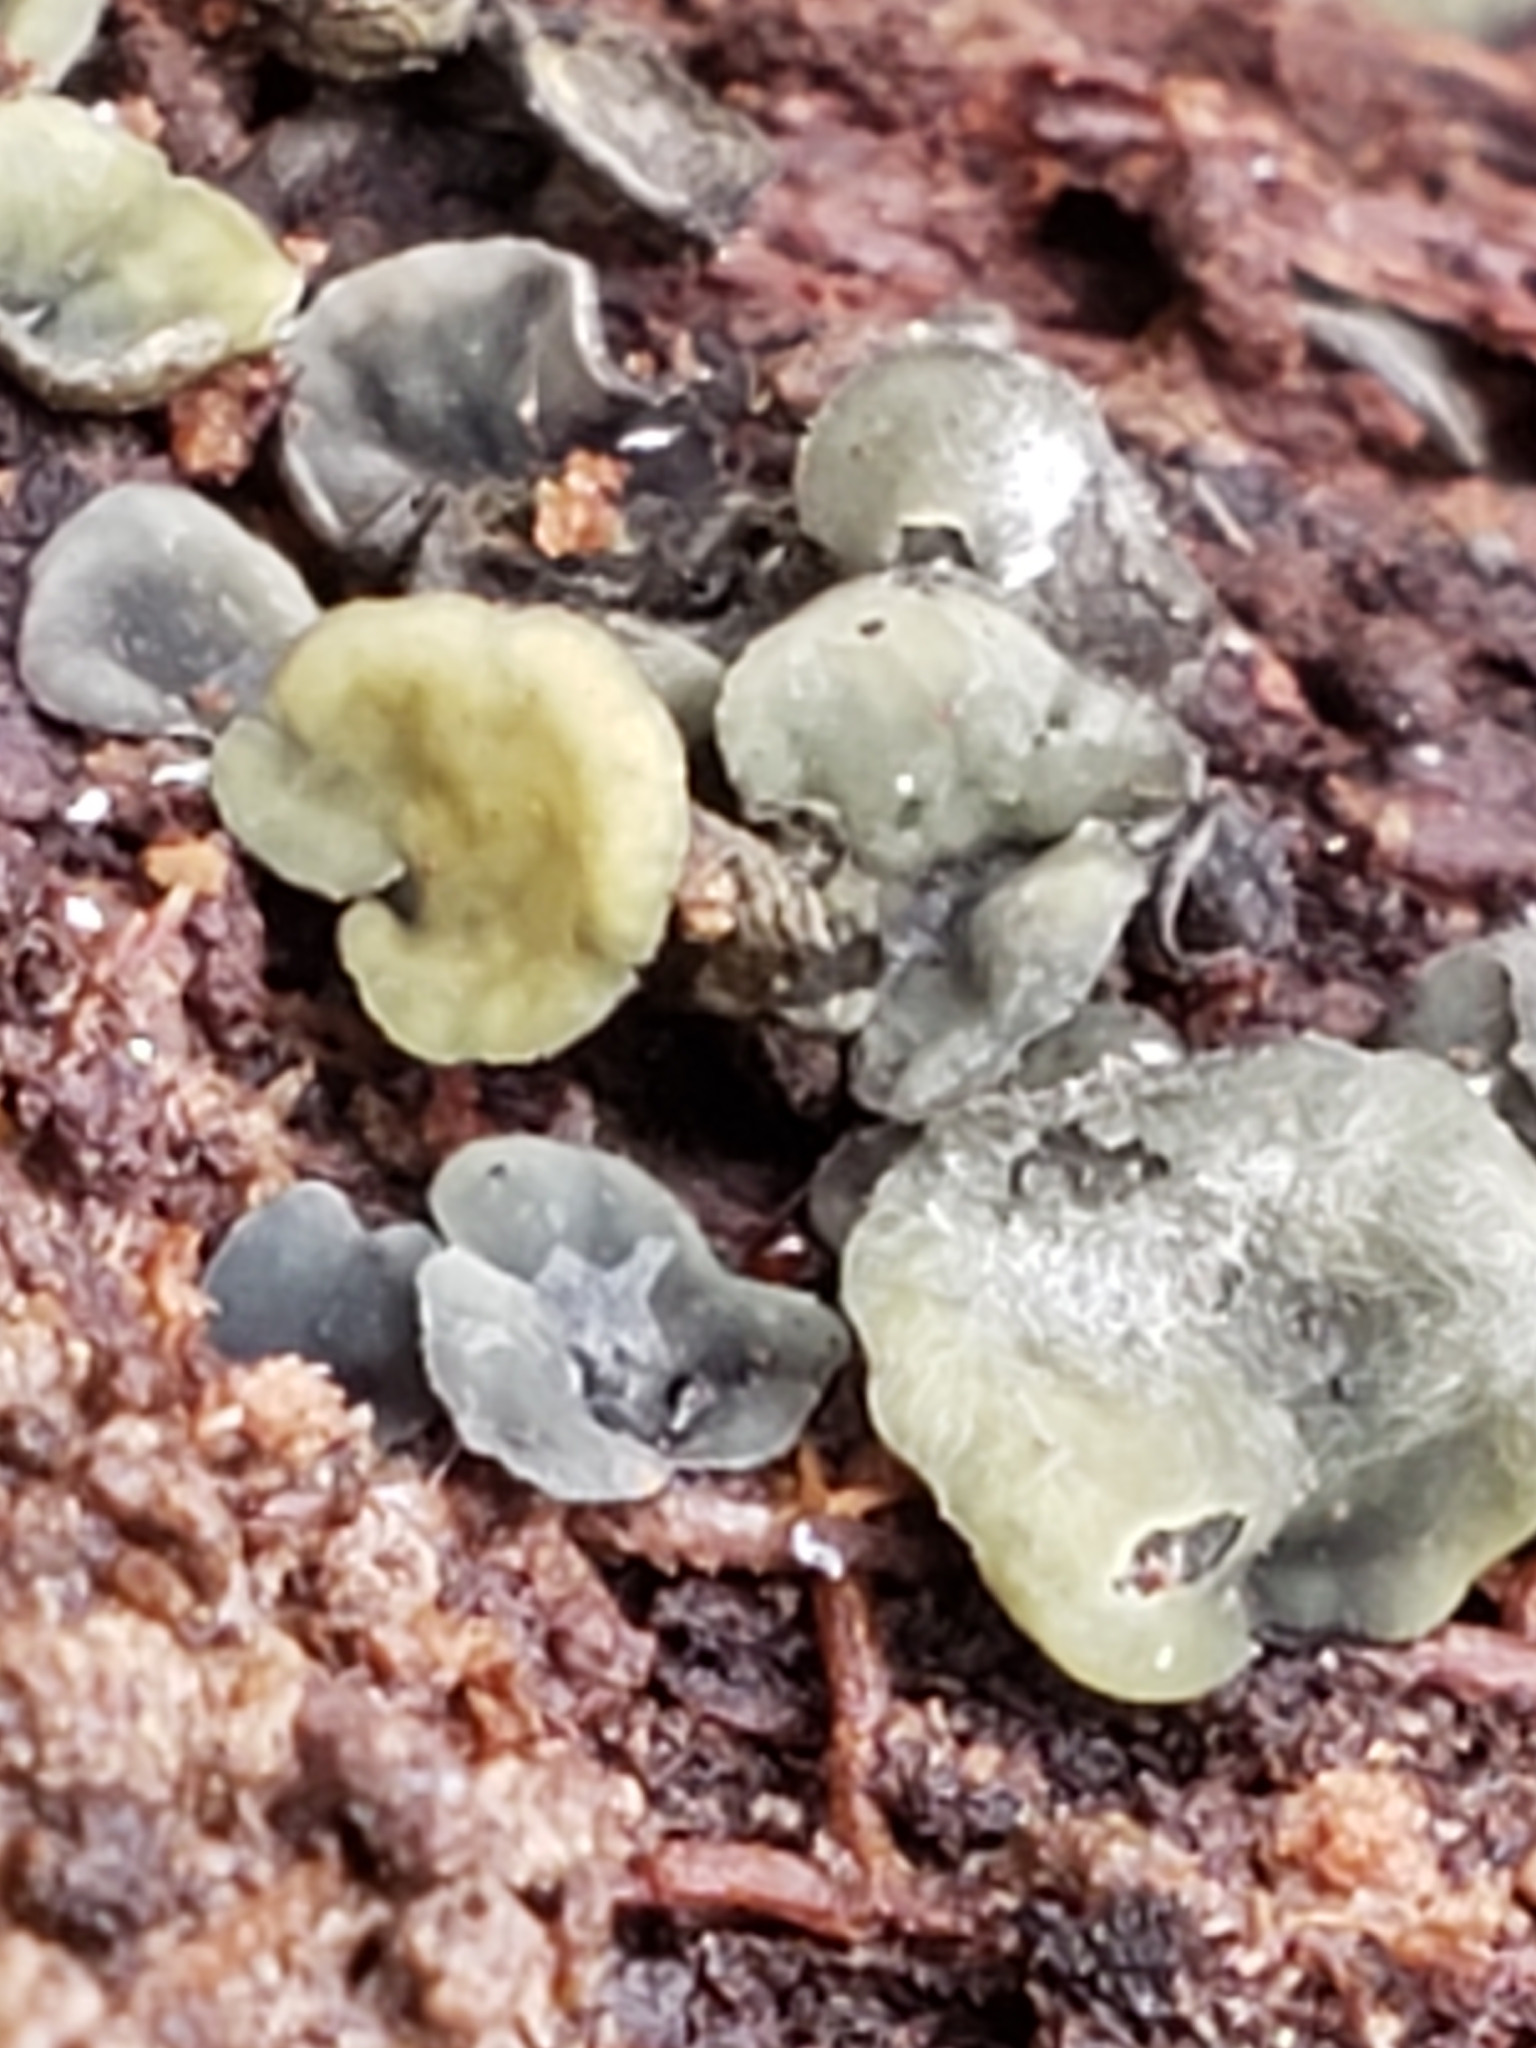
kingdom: Fungi
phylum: Ascomycota
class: Leotiomycetes
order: Helotiales
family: Chlorospleniaceae
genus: Chlorosplenium
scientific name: Chlorosplenium chlora
